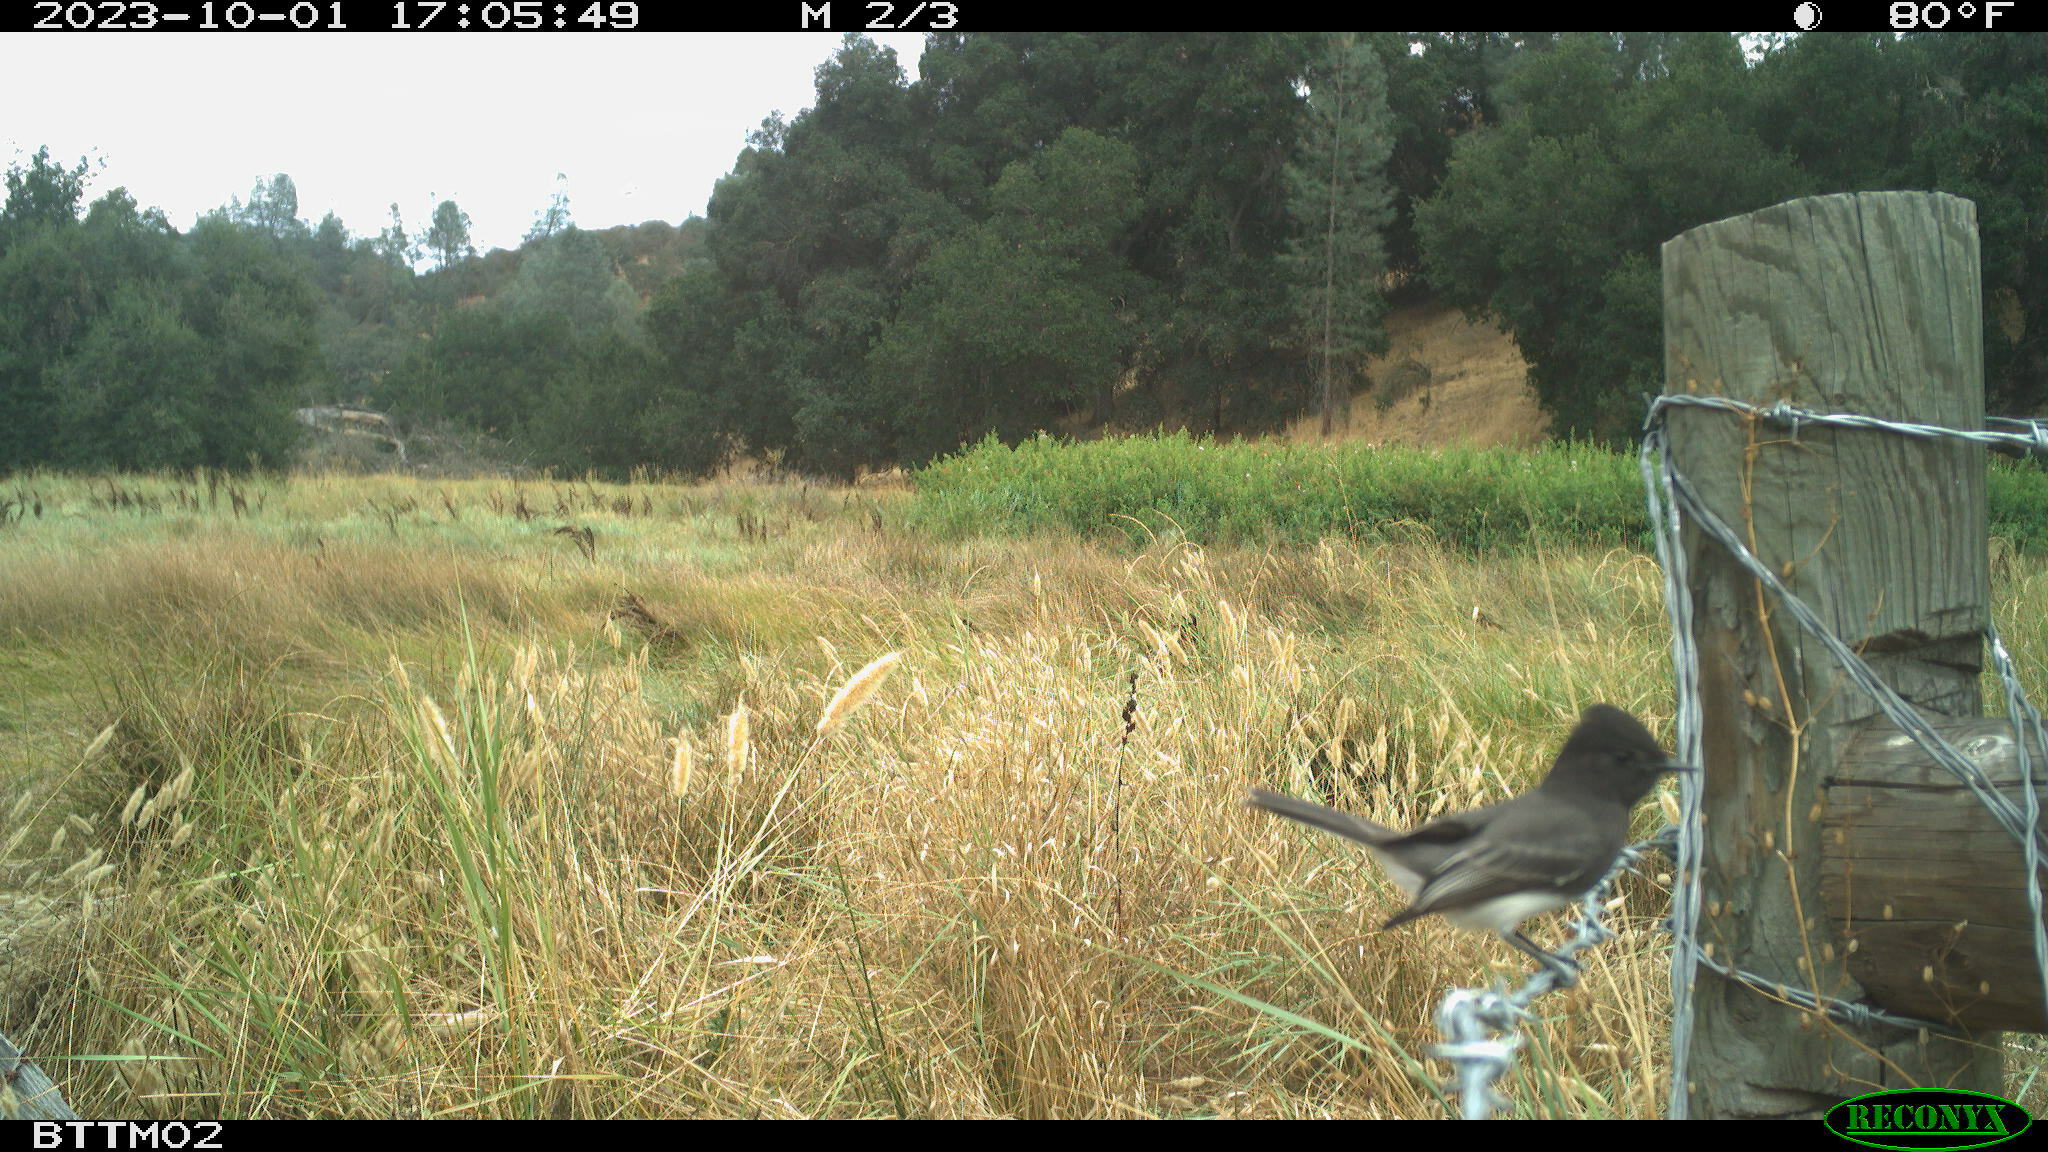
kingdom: Animalia
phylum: Chordata
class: Aves
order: Passeriformes
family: Tyrannidae
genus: Sayornis
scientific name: Sayornis nigricans
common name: Black phoebe
